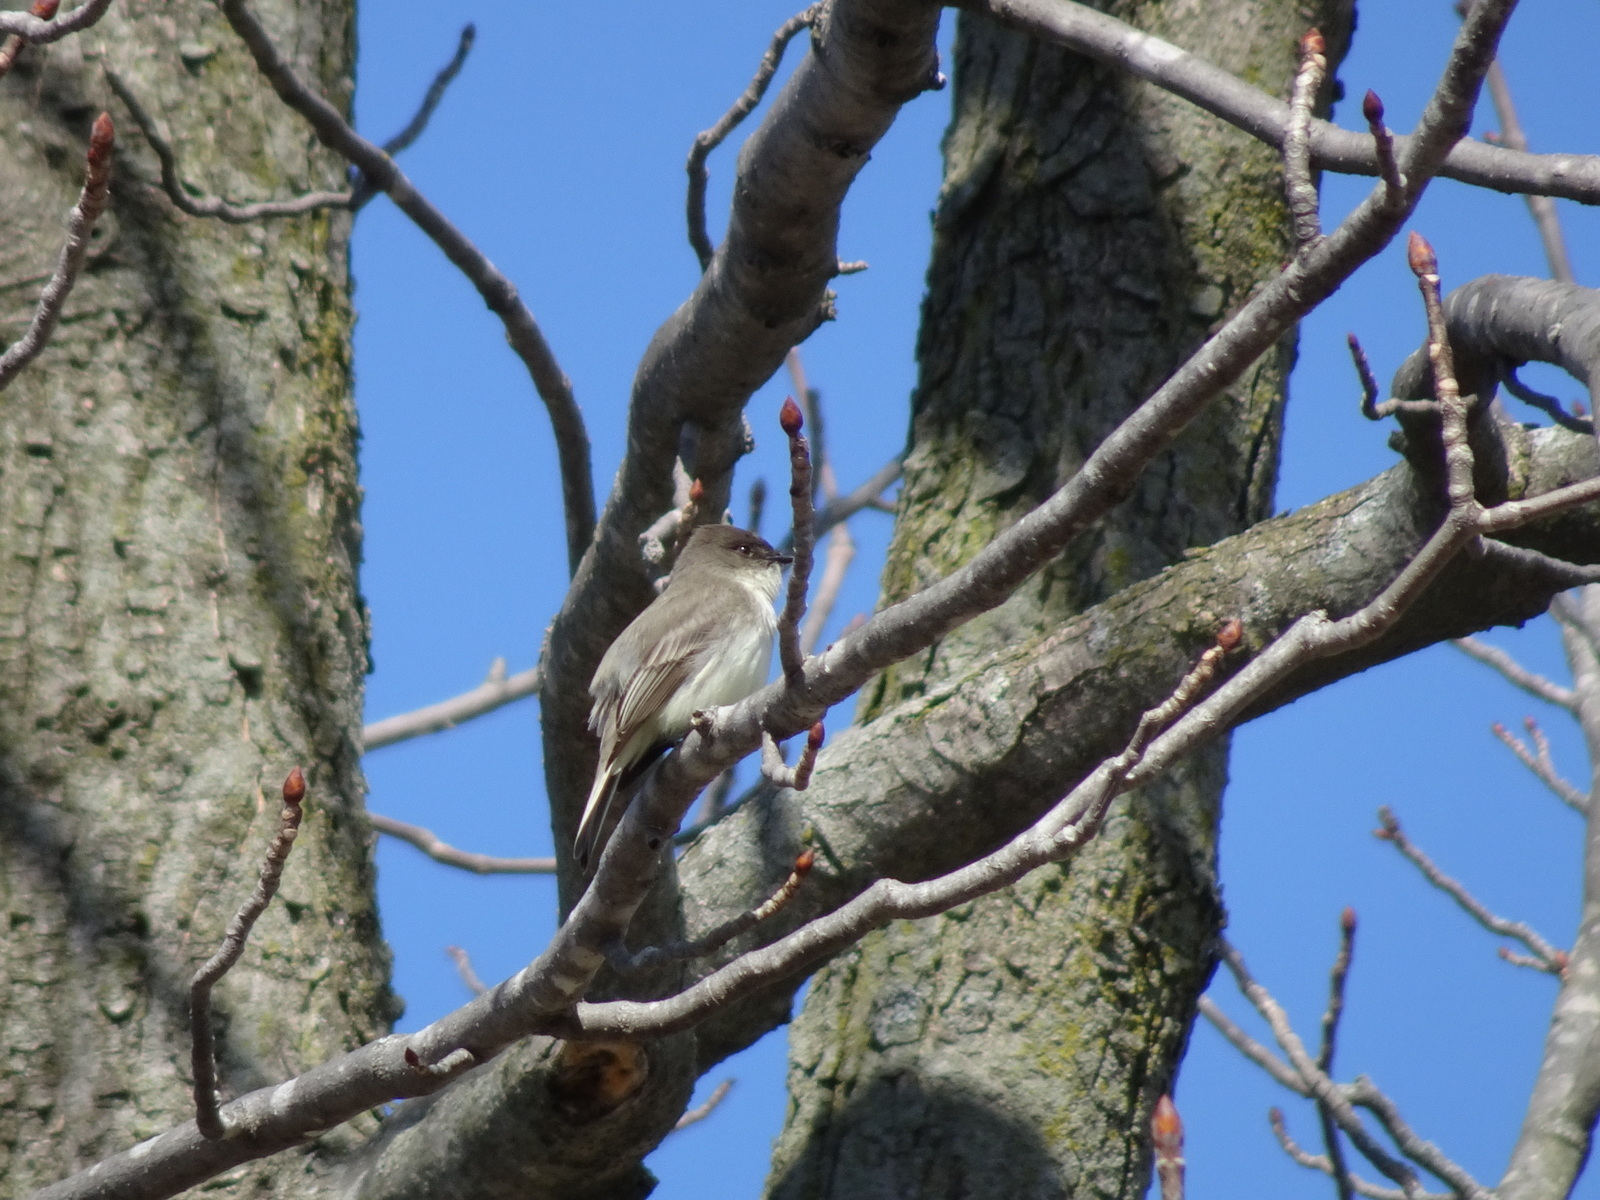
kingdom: Animalia
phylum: Chordata
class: Aves
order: Passeriformes
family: Tyrannidae
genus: Sayornis
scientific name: Sayornis phoebe
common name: Eastern phoebe
